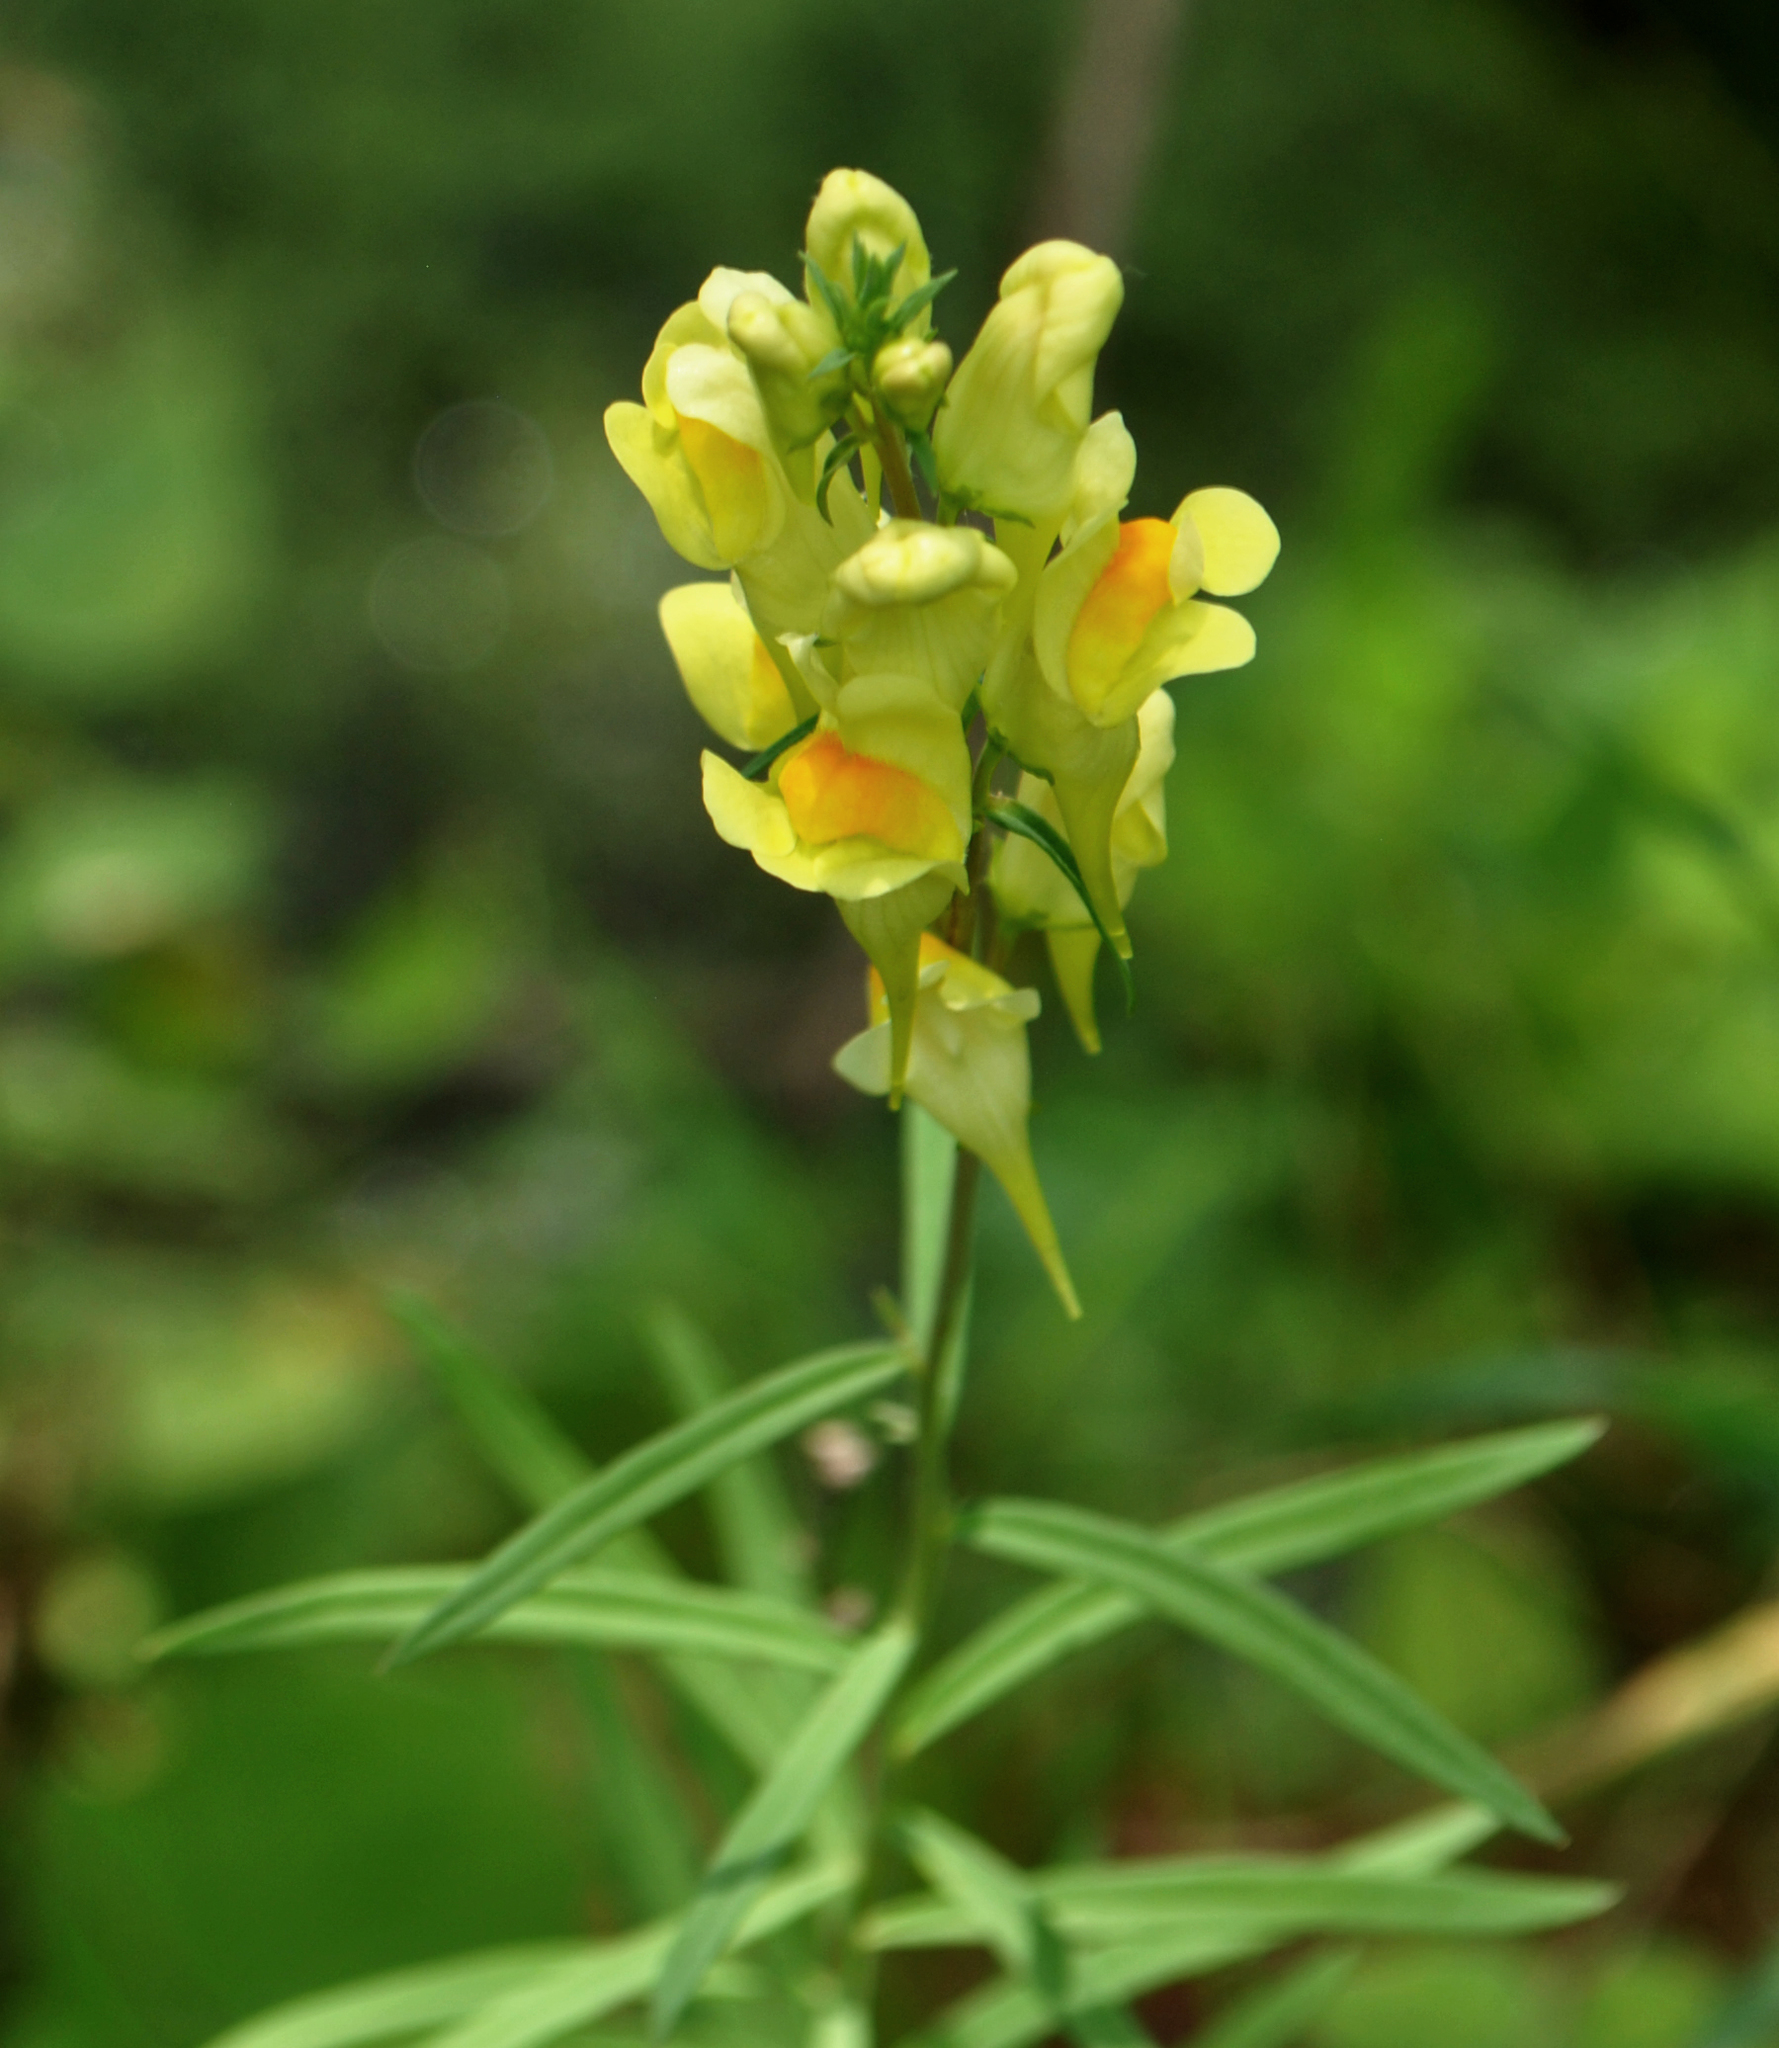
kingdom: Plantae
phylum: Tracheophyta
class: Magnoliopsida
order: Lamiales
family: Plantaginaceae
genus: Linaria
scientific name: Linaria vulgaris
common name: Butter and eggs
